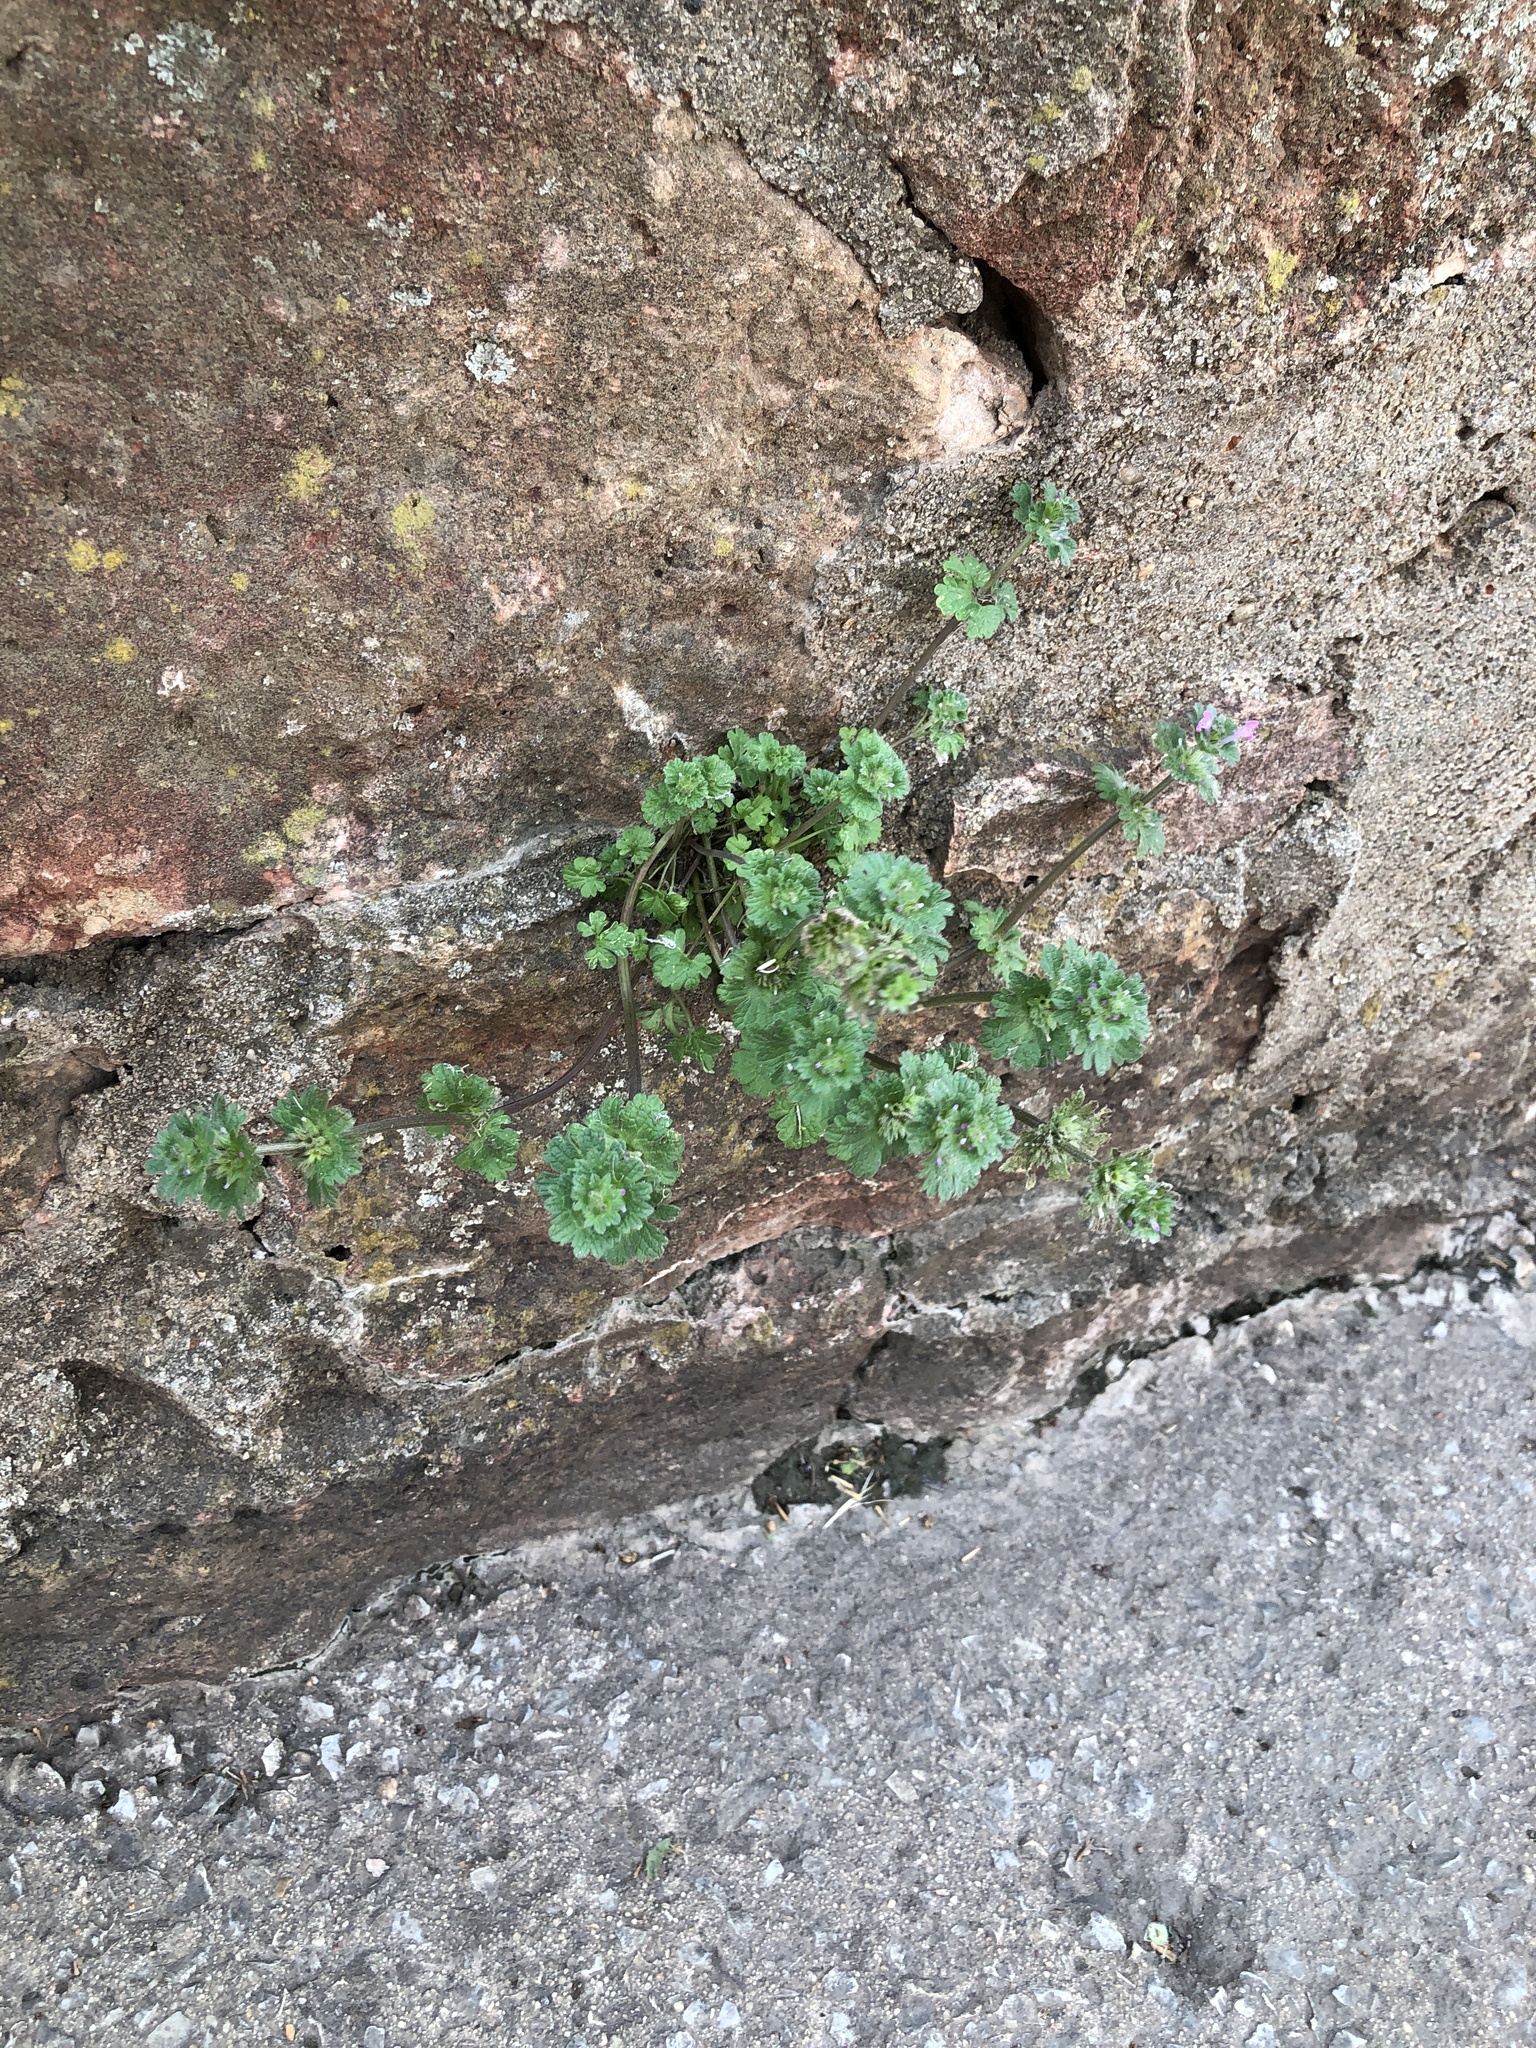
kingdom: Plantae
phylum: Tracheophyta
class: Magnoliopsida
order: Lamiales
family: Lamiaceae
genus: Lamium
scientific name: Lamium amplexicaule
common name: Henbit dead-nettle
